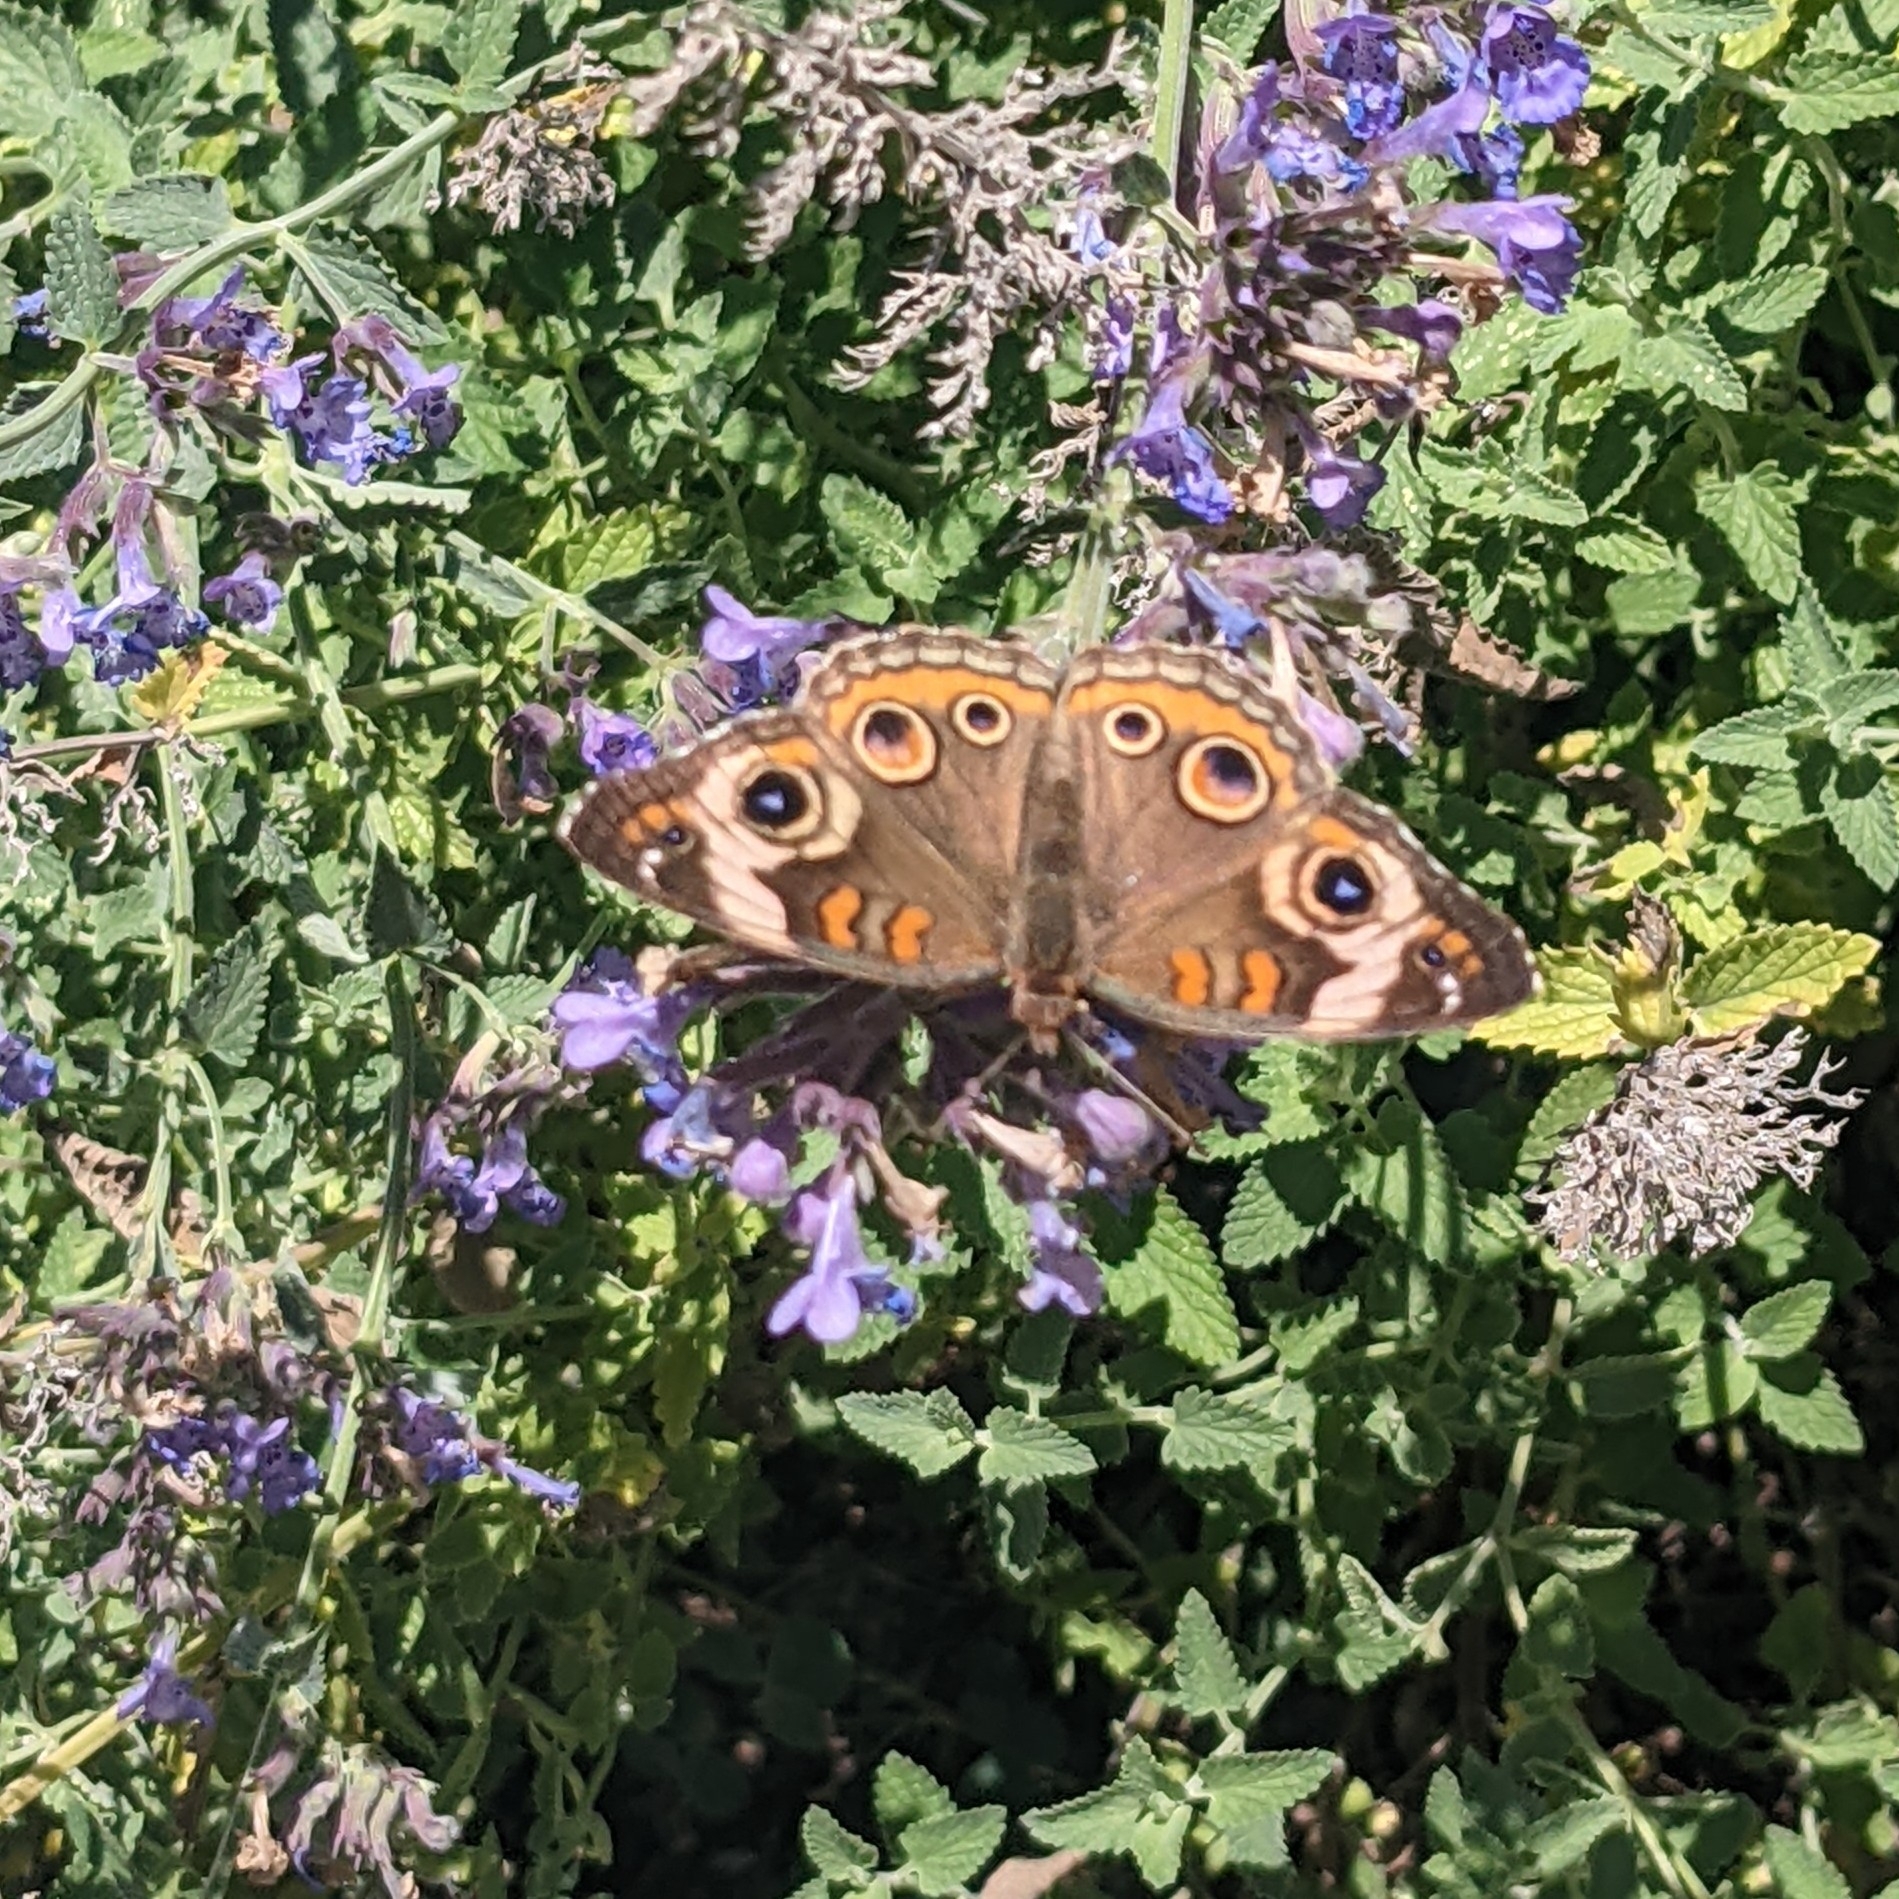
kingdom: Animalia
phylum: Arthropoda
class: Insecta
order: Lepidoptera
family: Nymphalidae
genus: Junonia
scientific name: Junonia coenia
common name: Common buckeye
